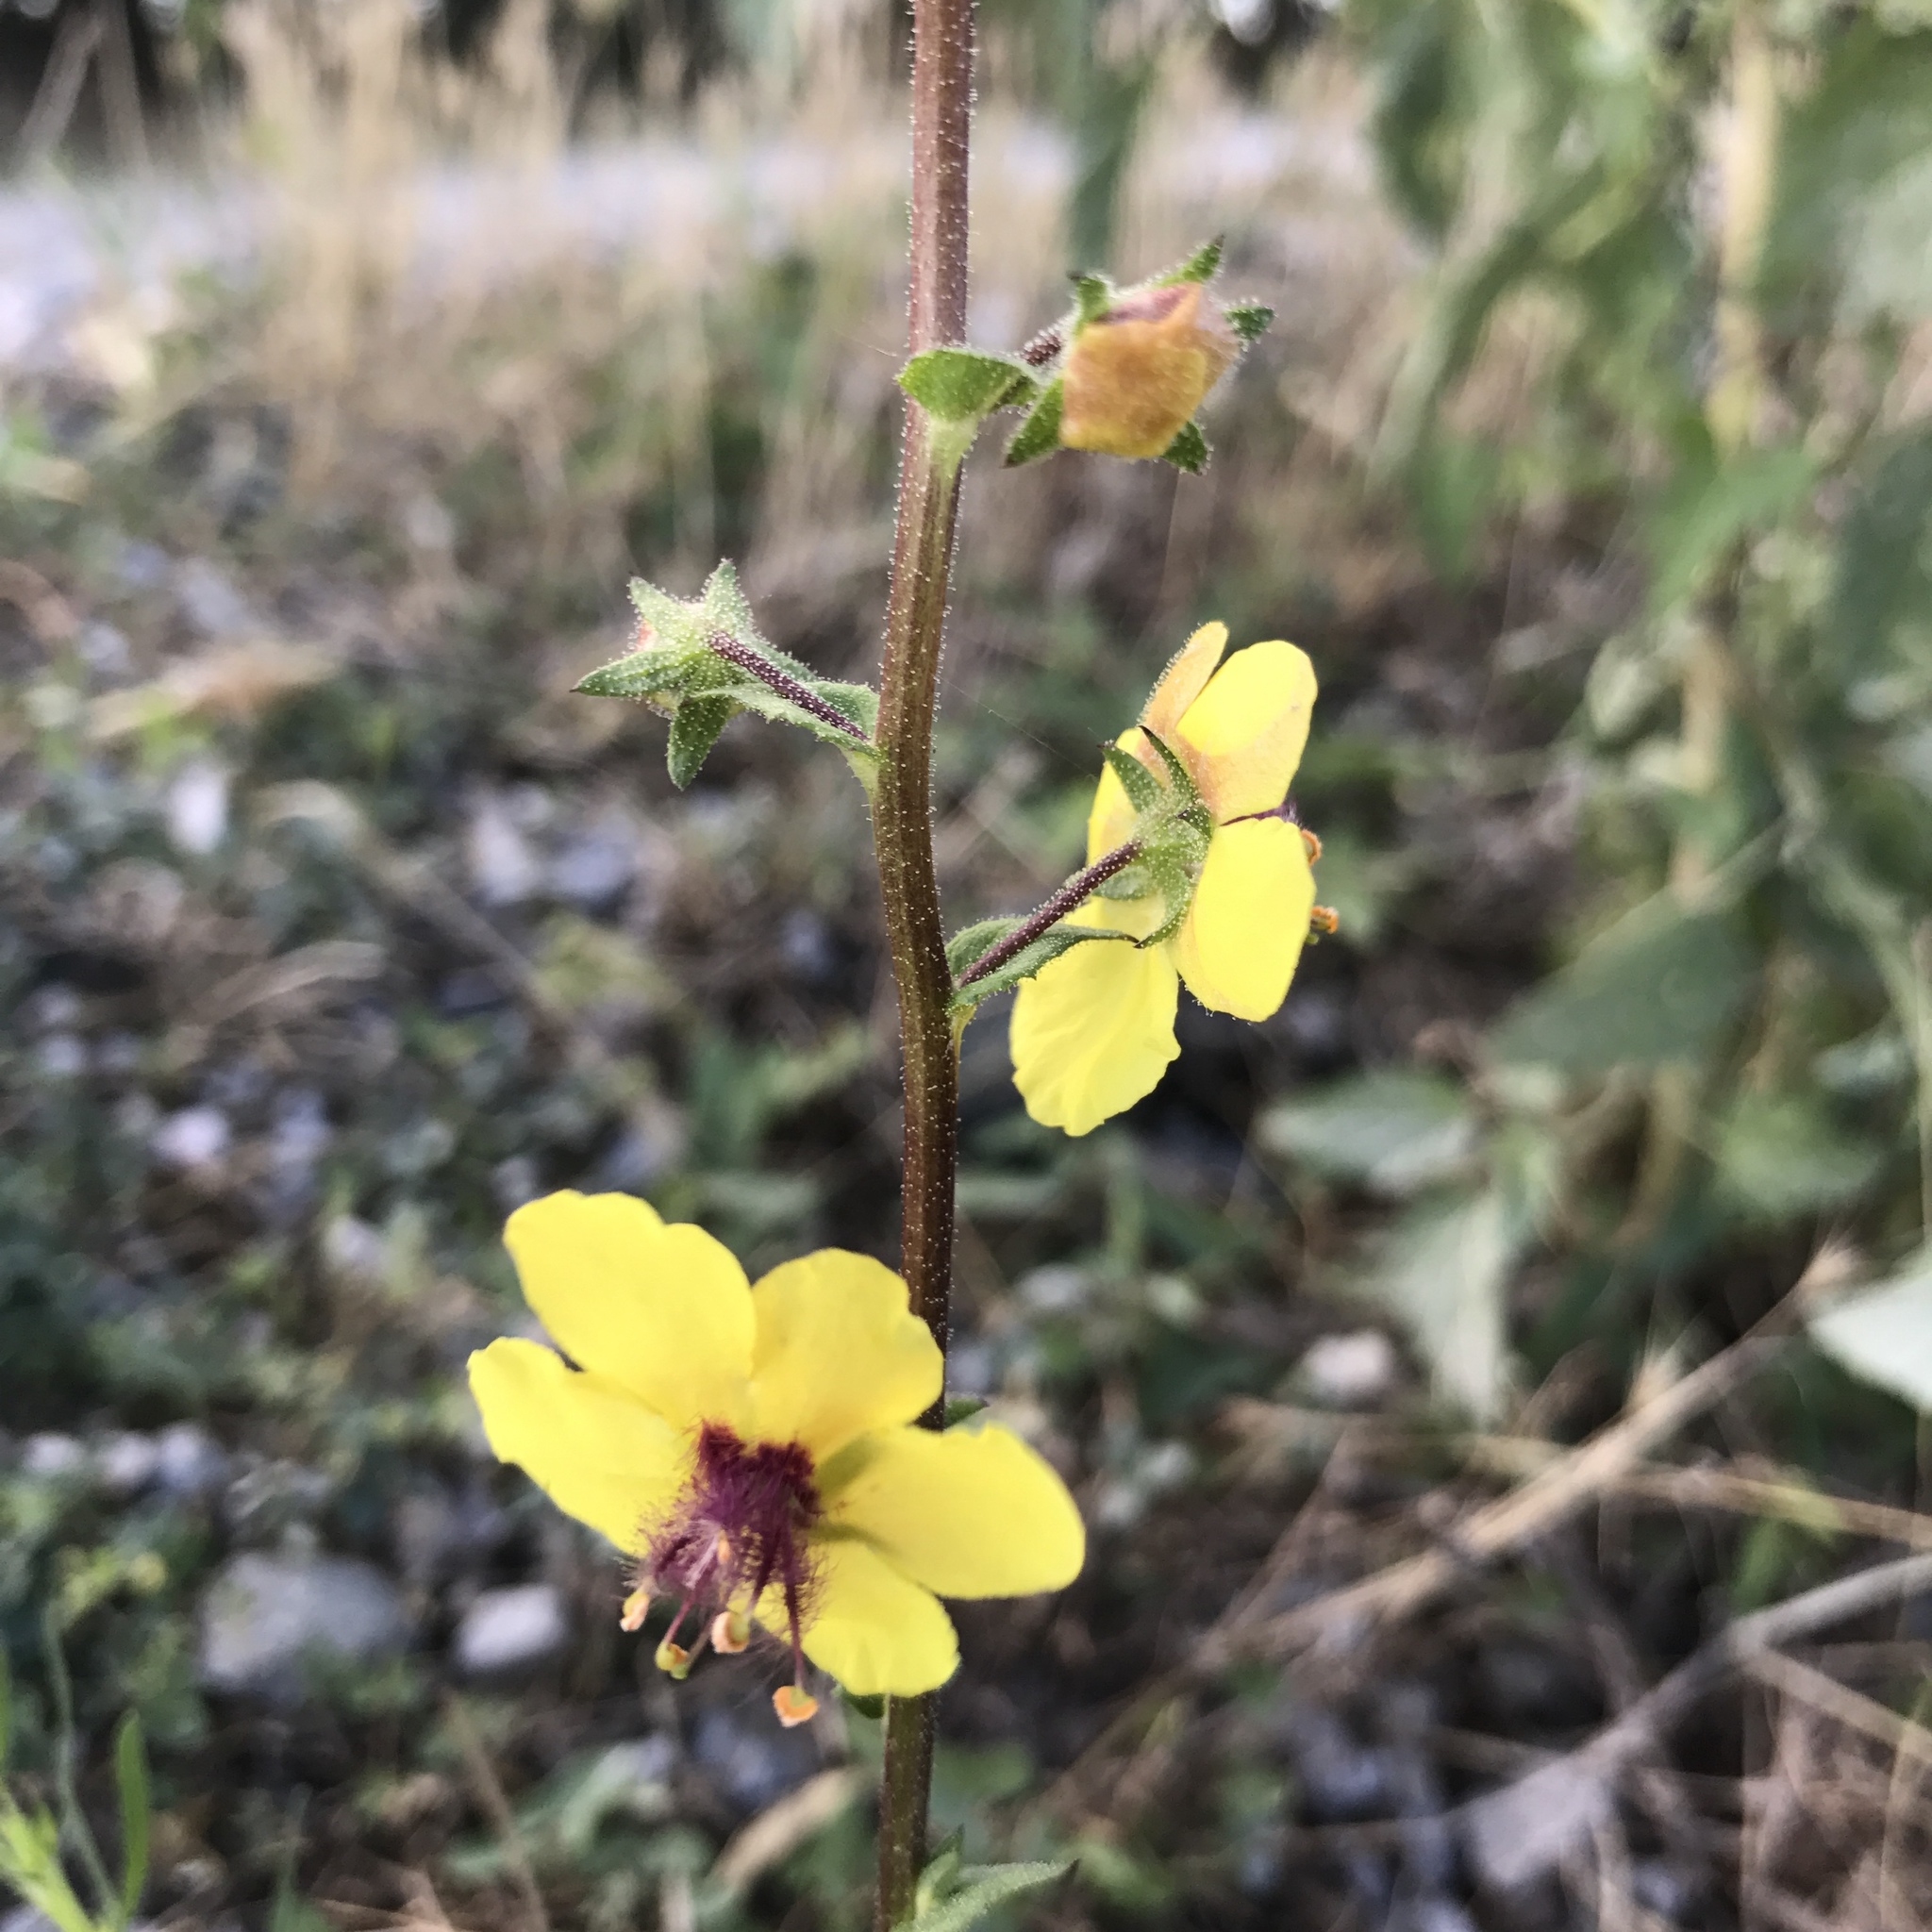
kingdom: Plantae
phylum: Tracheophyta
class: Magnoliopsida
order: Lamiales
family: Scrophulariaceae
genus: Verbascum
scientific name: Verbascum blattaria
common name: Moth mullein
